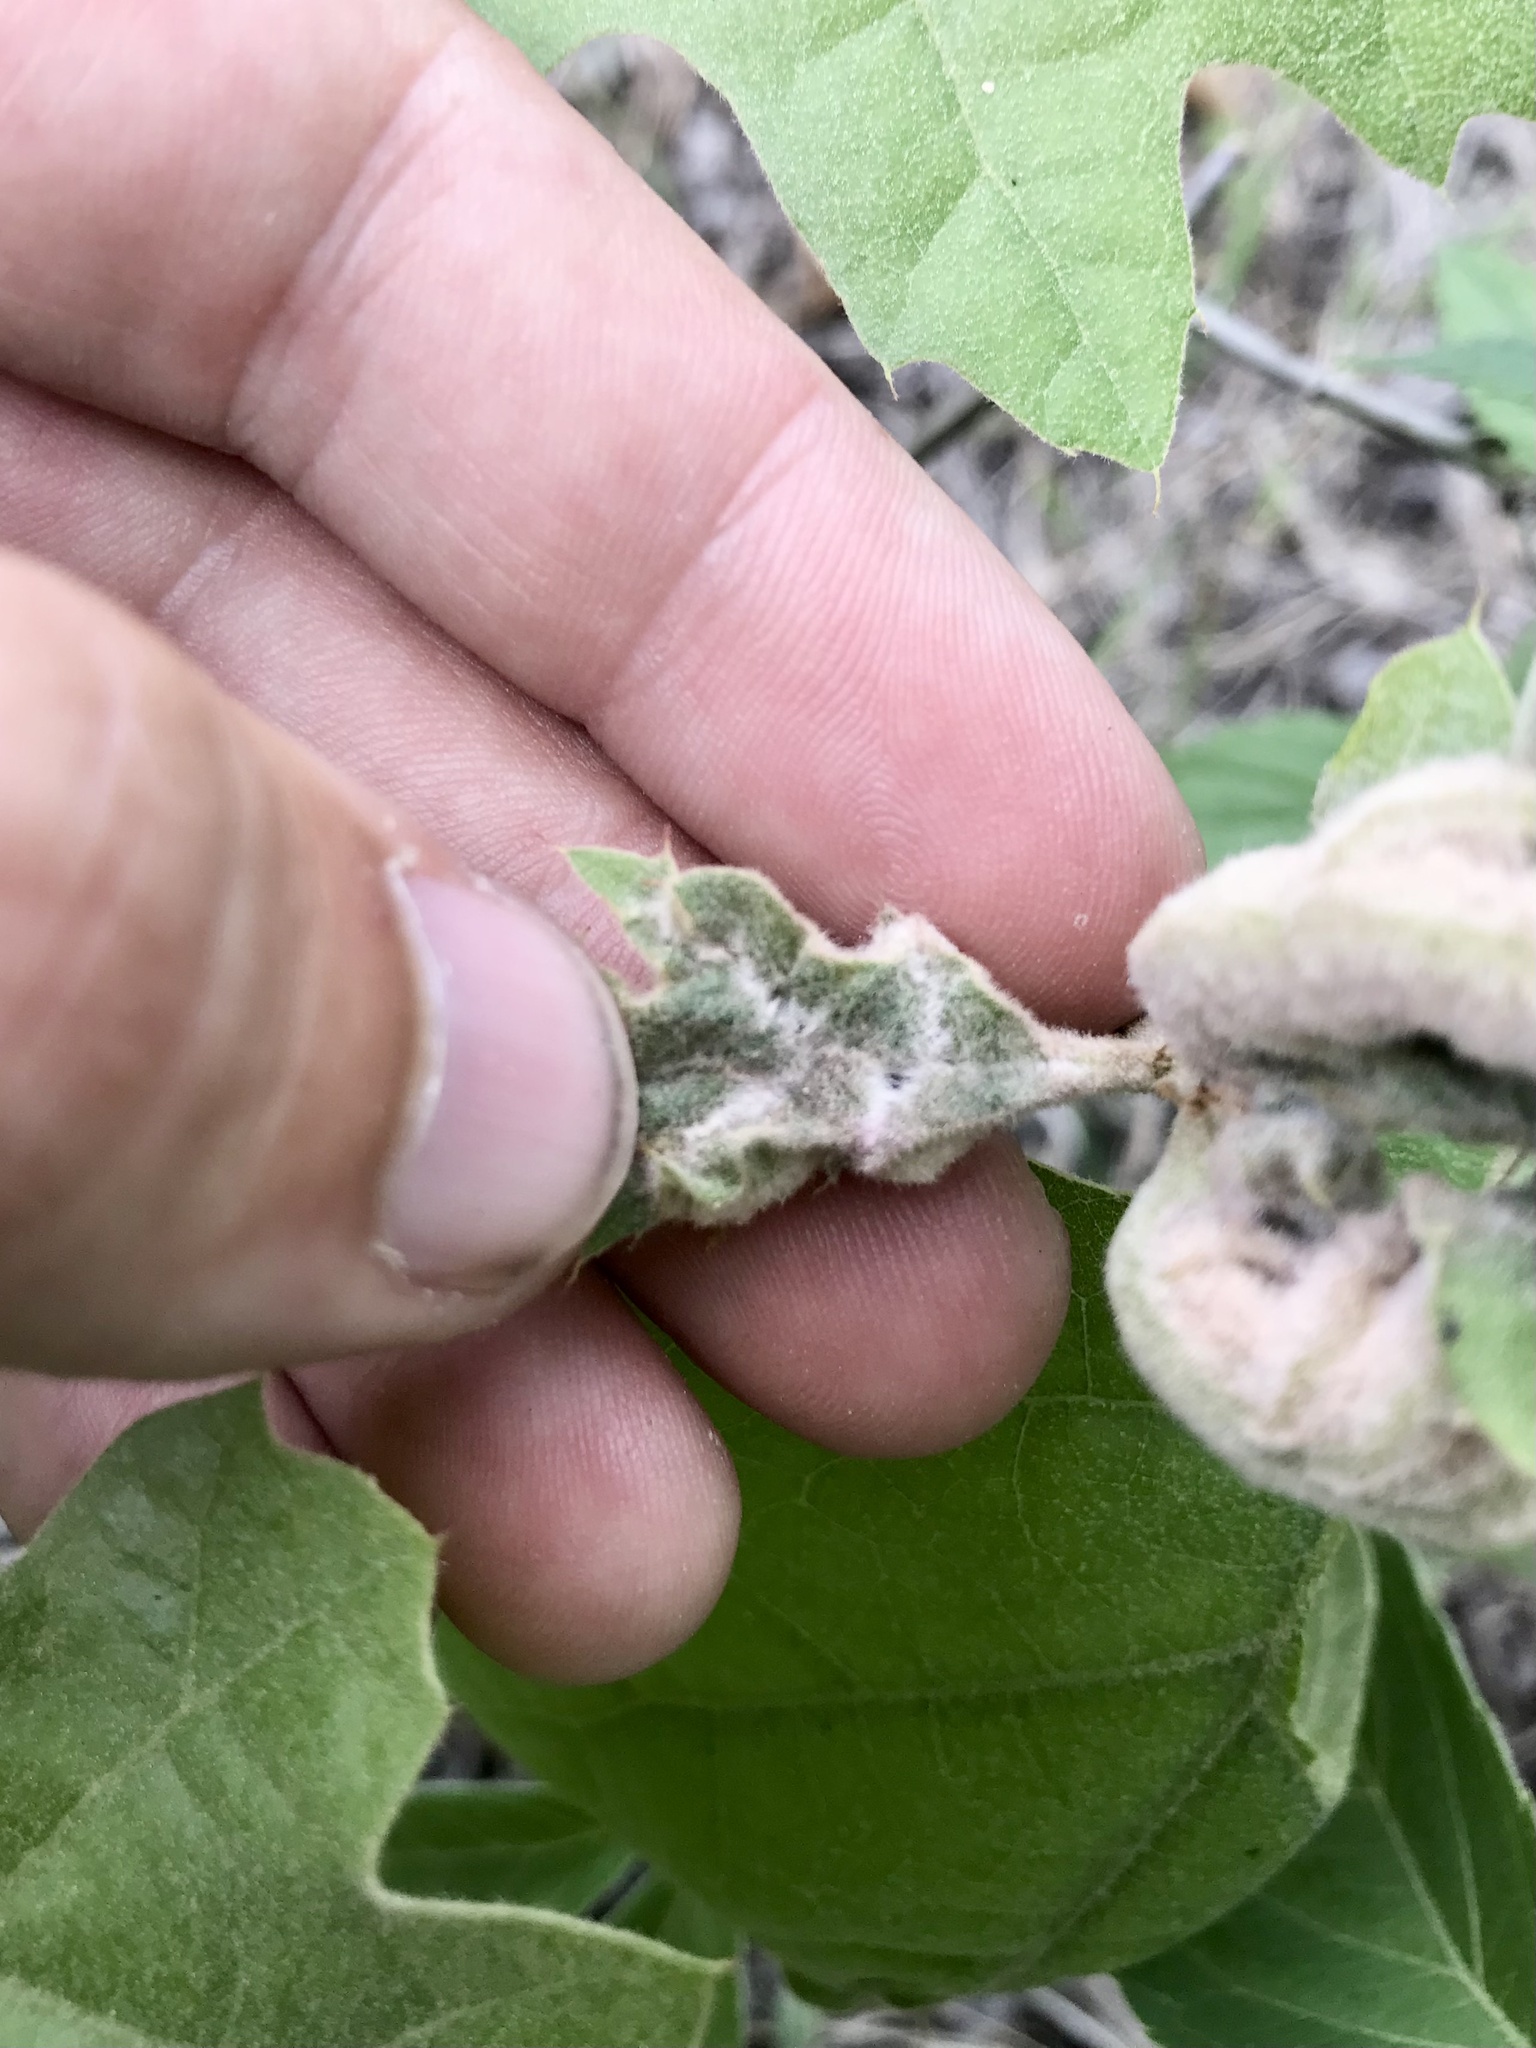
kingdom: Animalia
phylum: Arthropoda
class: Insecta
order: Diptera
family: Cecidomyiidae
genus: Macrodiplosis
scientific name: Macrodiplosis niveipila
